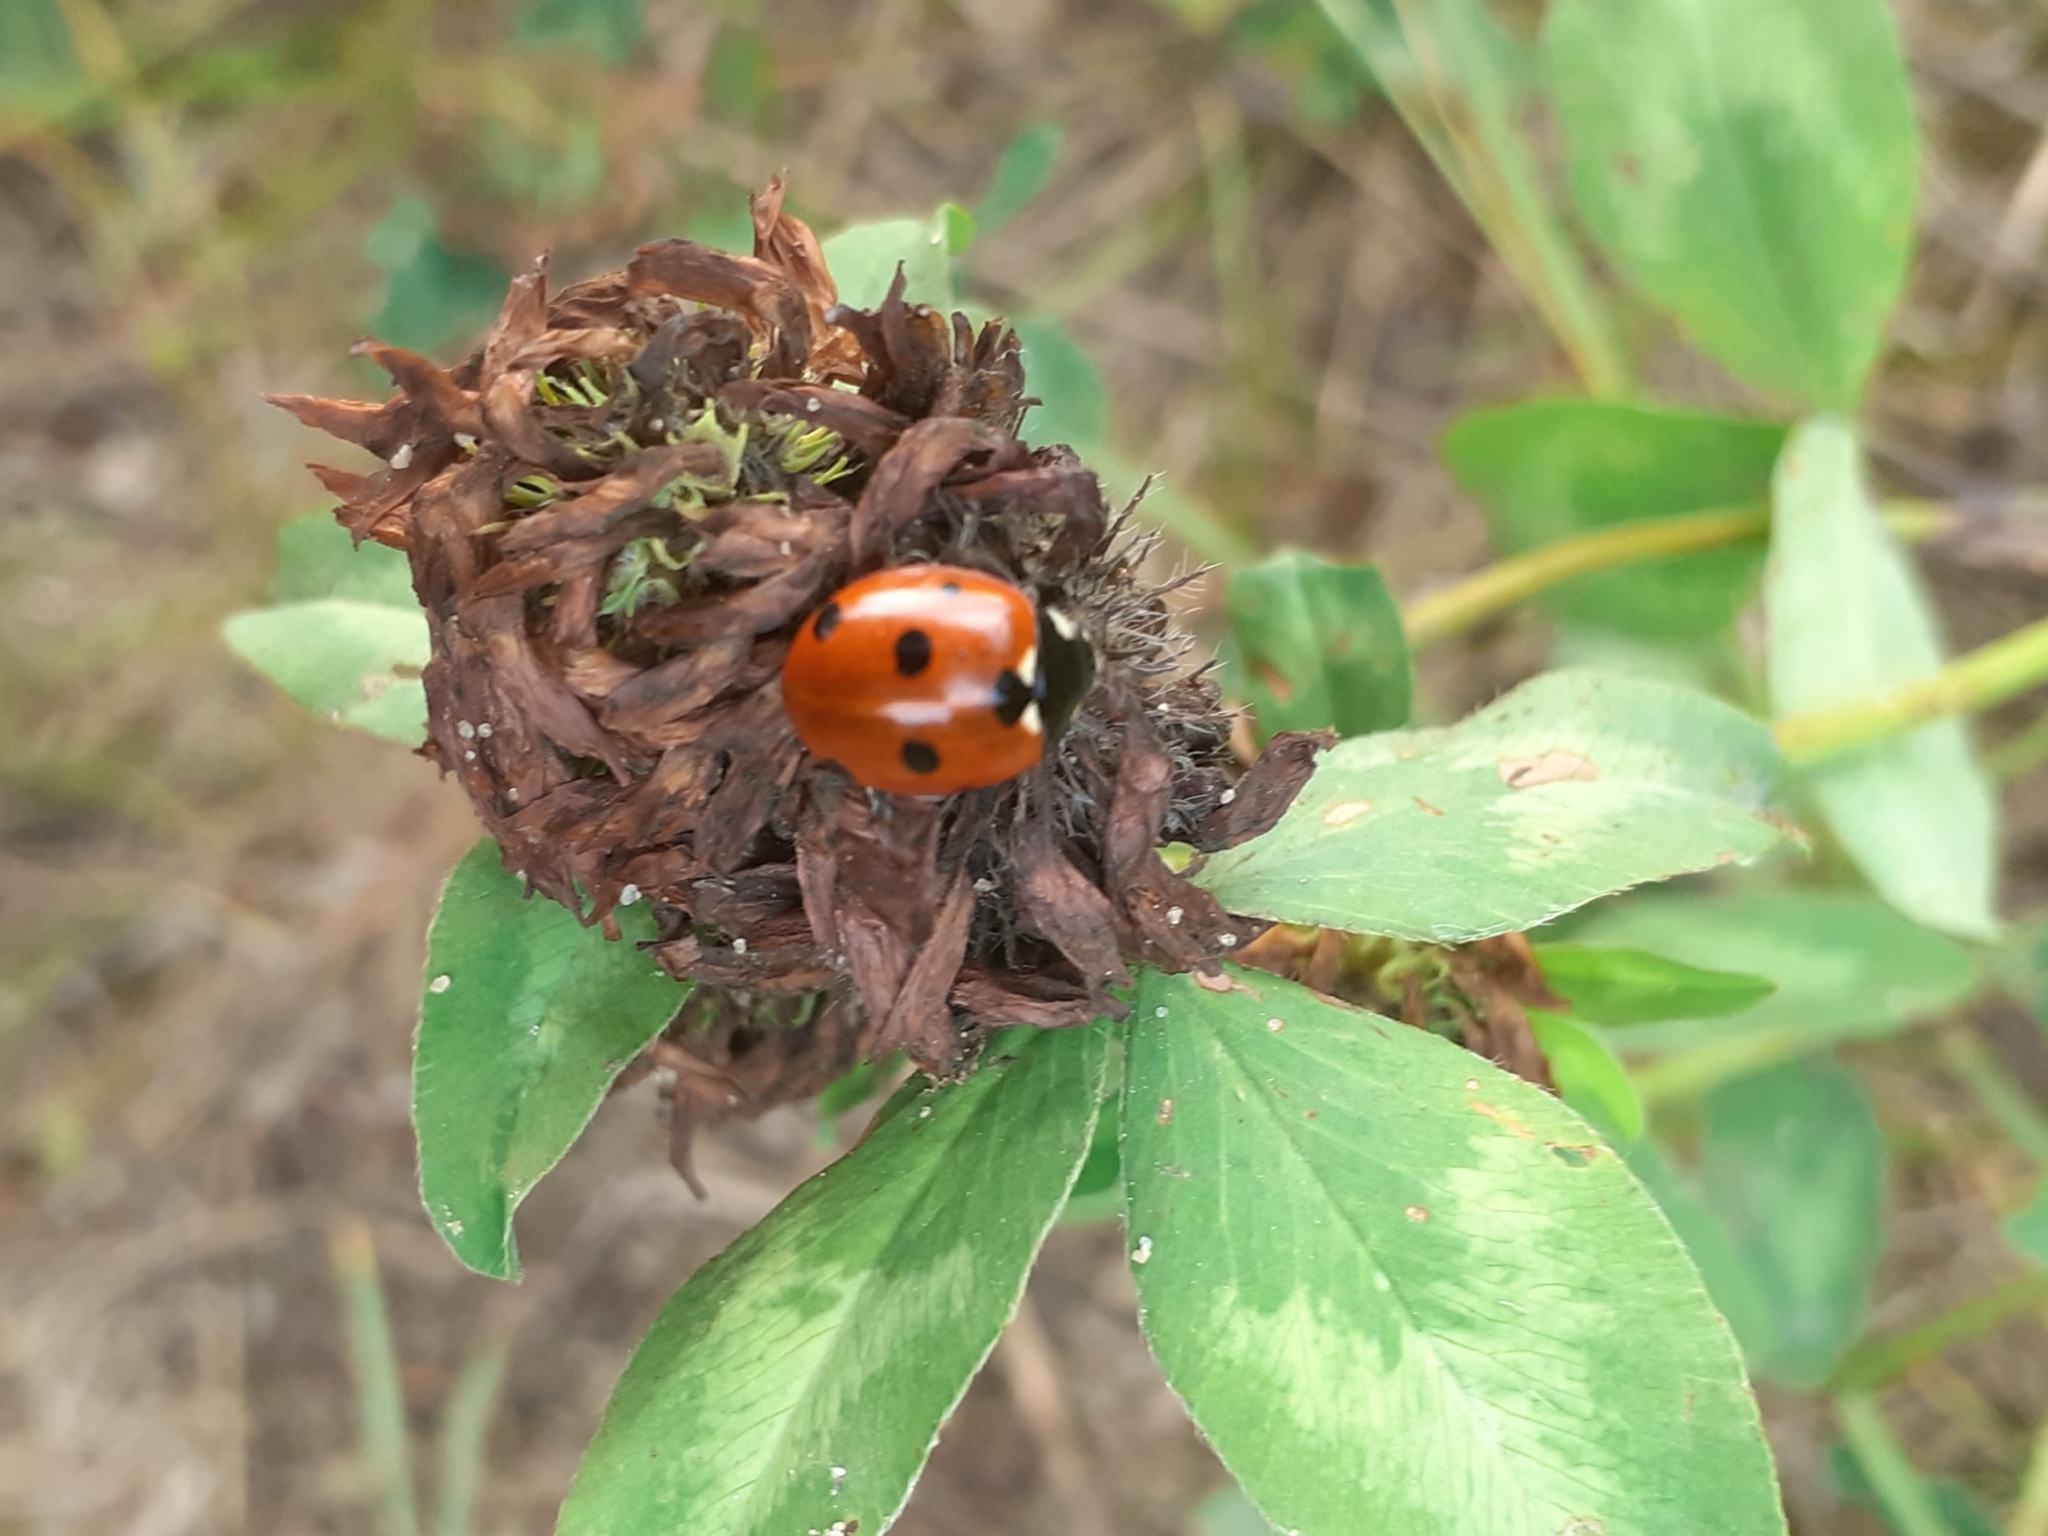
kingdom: Animalia
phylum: Arthropoda
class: Insecta
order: Coleoptera
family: Coccinellidae
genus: Coccinella
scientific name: Coccinella septempunctata
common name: Sevenspotted lady beetle
